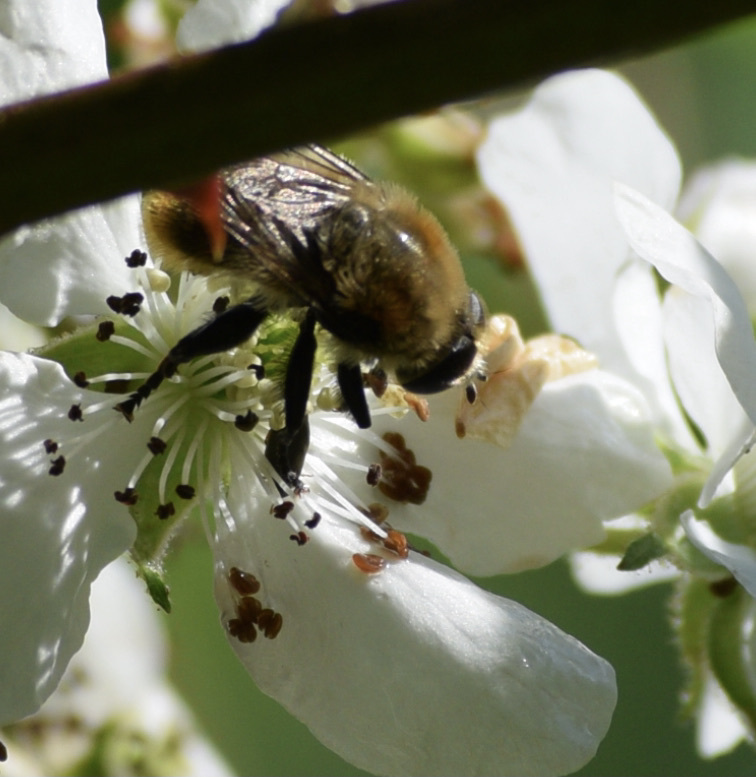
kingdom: Animalia
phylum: Arthropoda
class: Insecta
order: Diptera
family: Syrphidae
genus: Merodon
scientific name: Merodon equestris
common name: Greater bulb-fly
